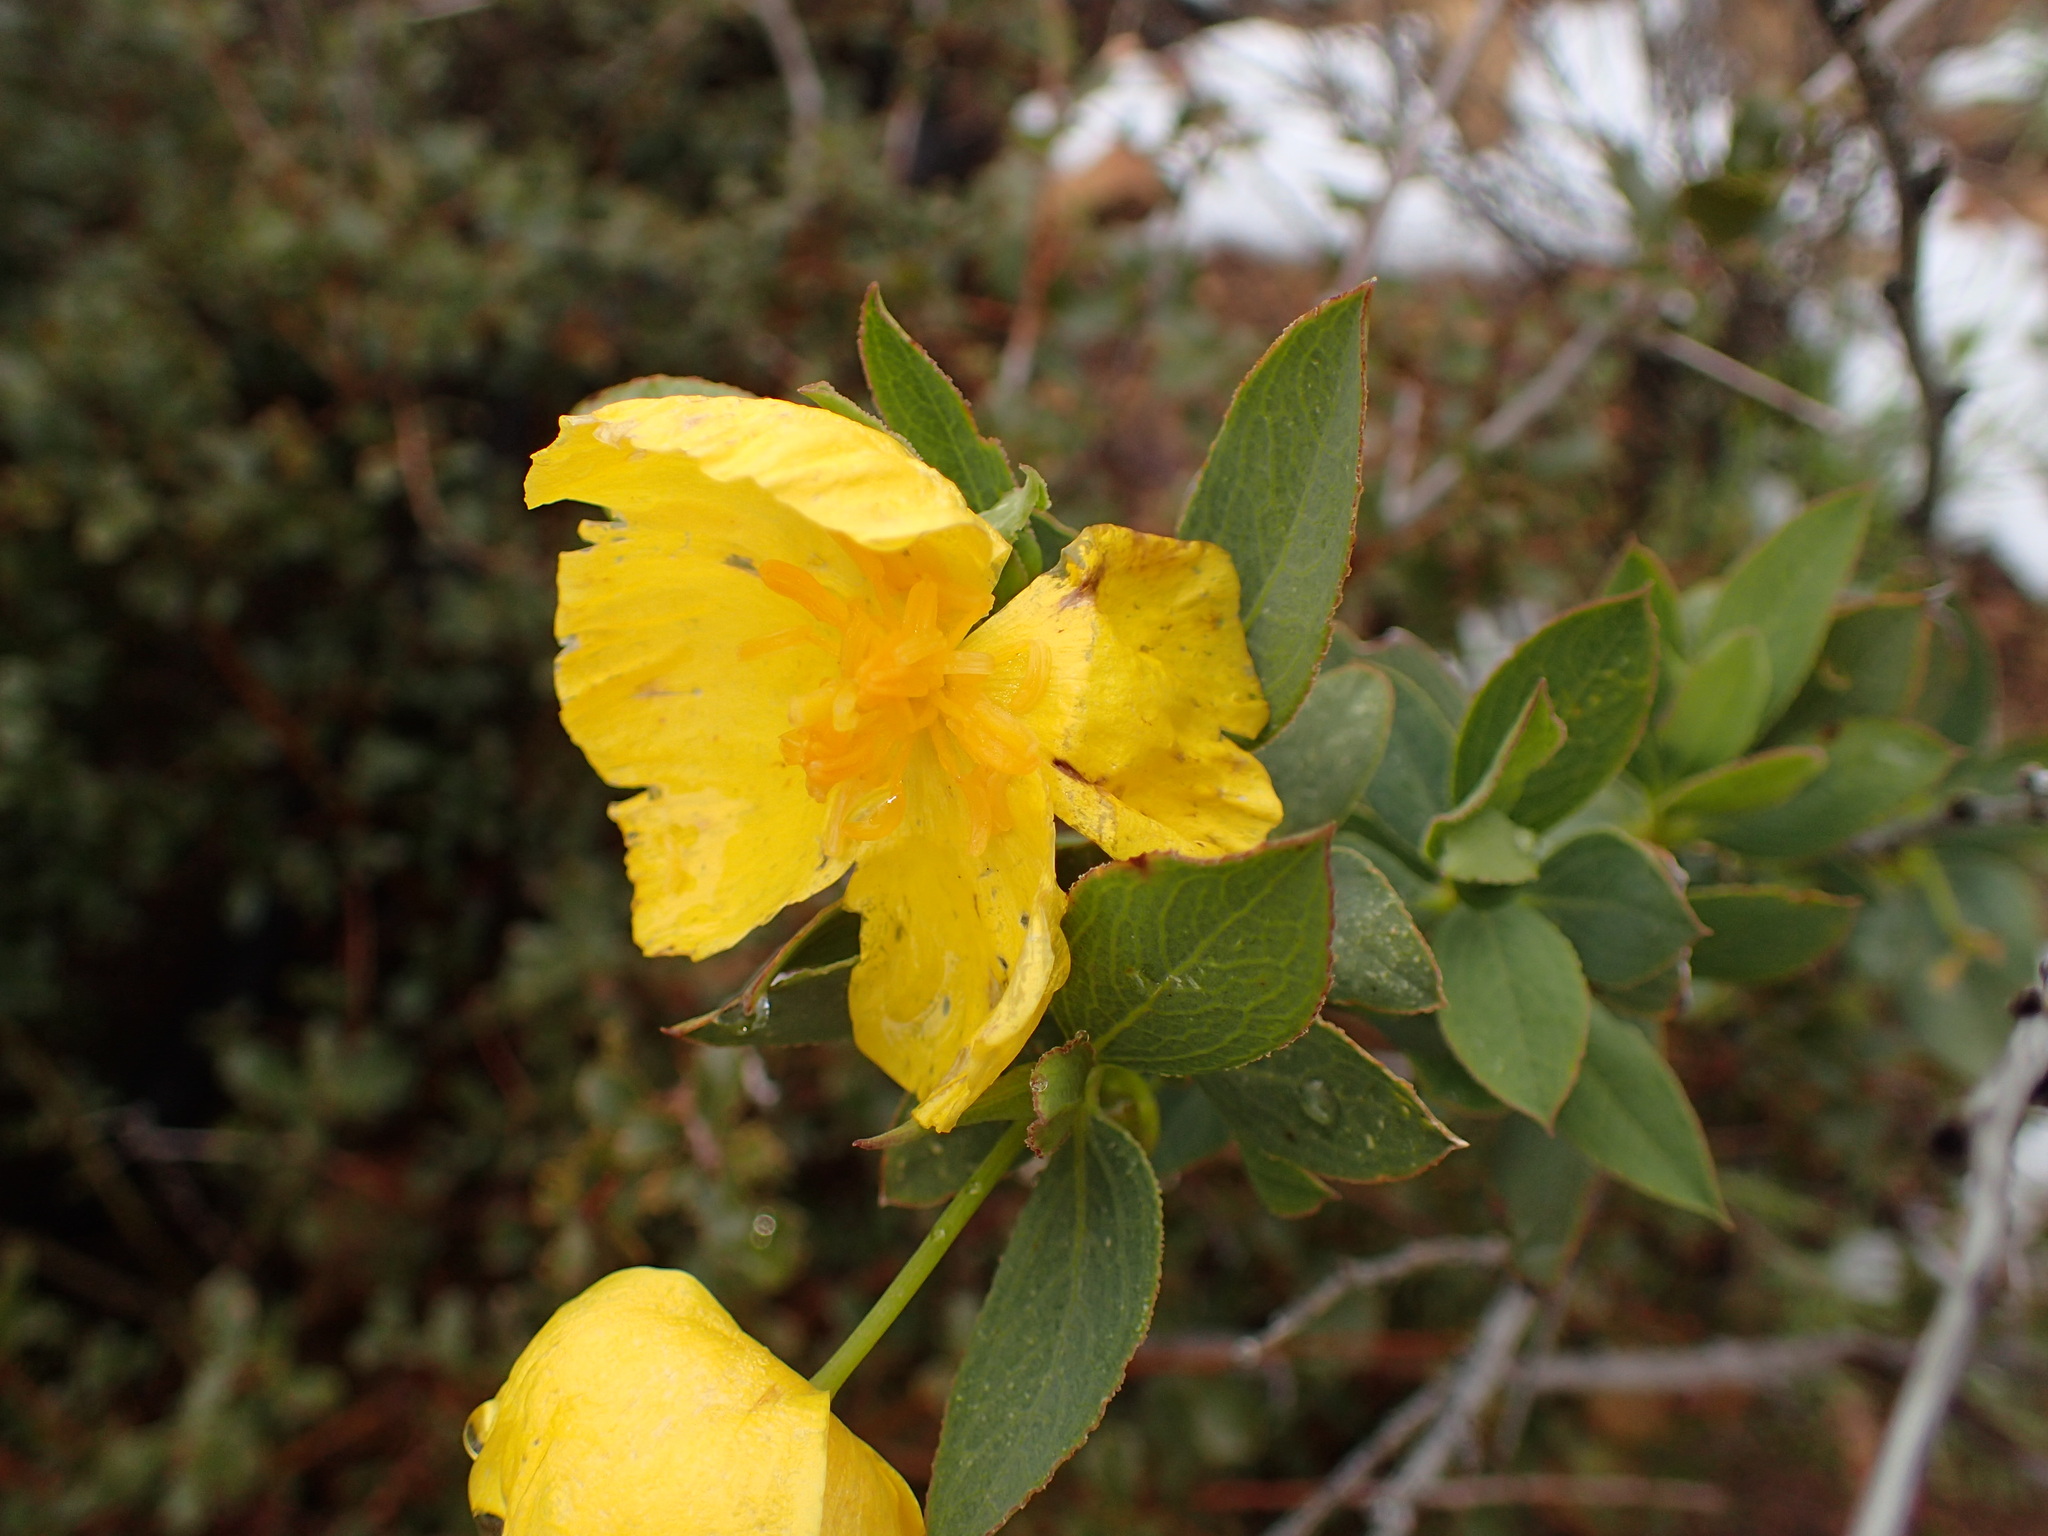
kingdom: Plantae
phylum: Tracheophyta
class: Magnoliopsida
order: Ranunculales
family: Papaveraceae
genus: Dendromecon
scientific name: Dendromecon rigida
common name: Tree poppy
